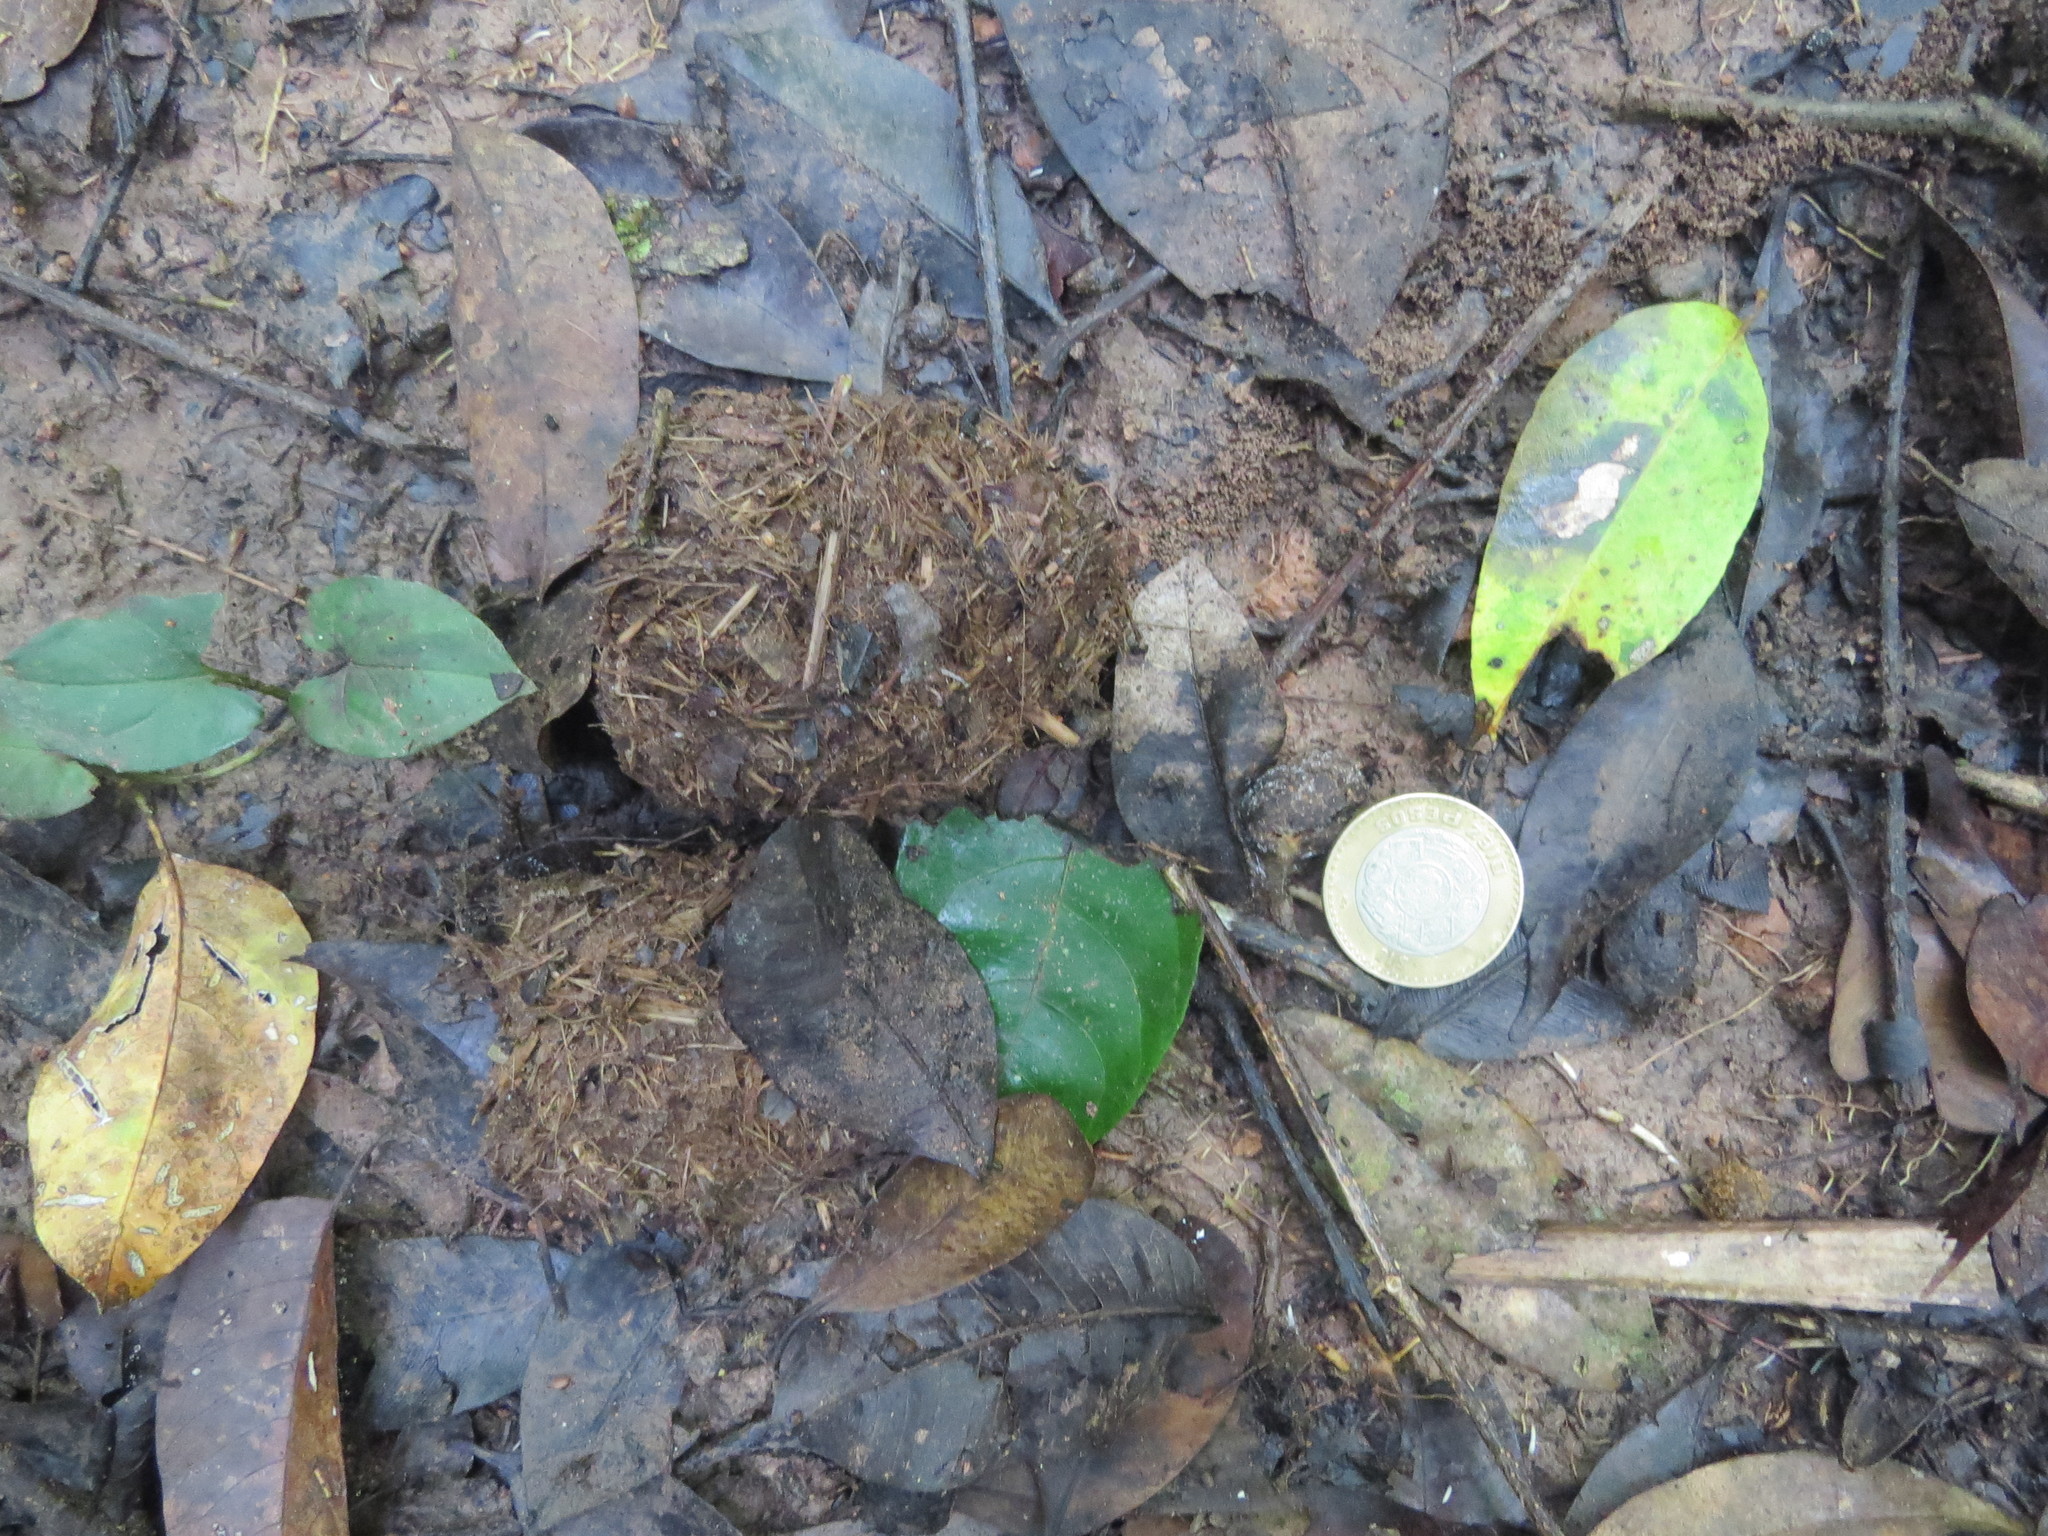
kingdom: Animalia
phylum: Chordata
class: Mammalia
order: Perissodactyla
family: Tapiridae
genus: Tapirella
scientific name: Tapirella bairdii
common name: Baird's tapir
